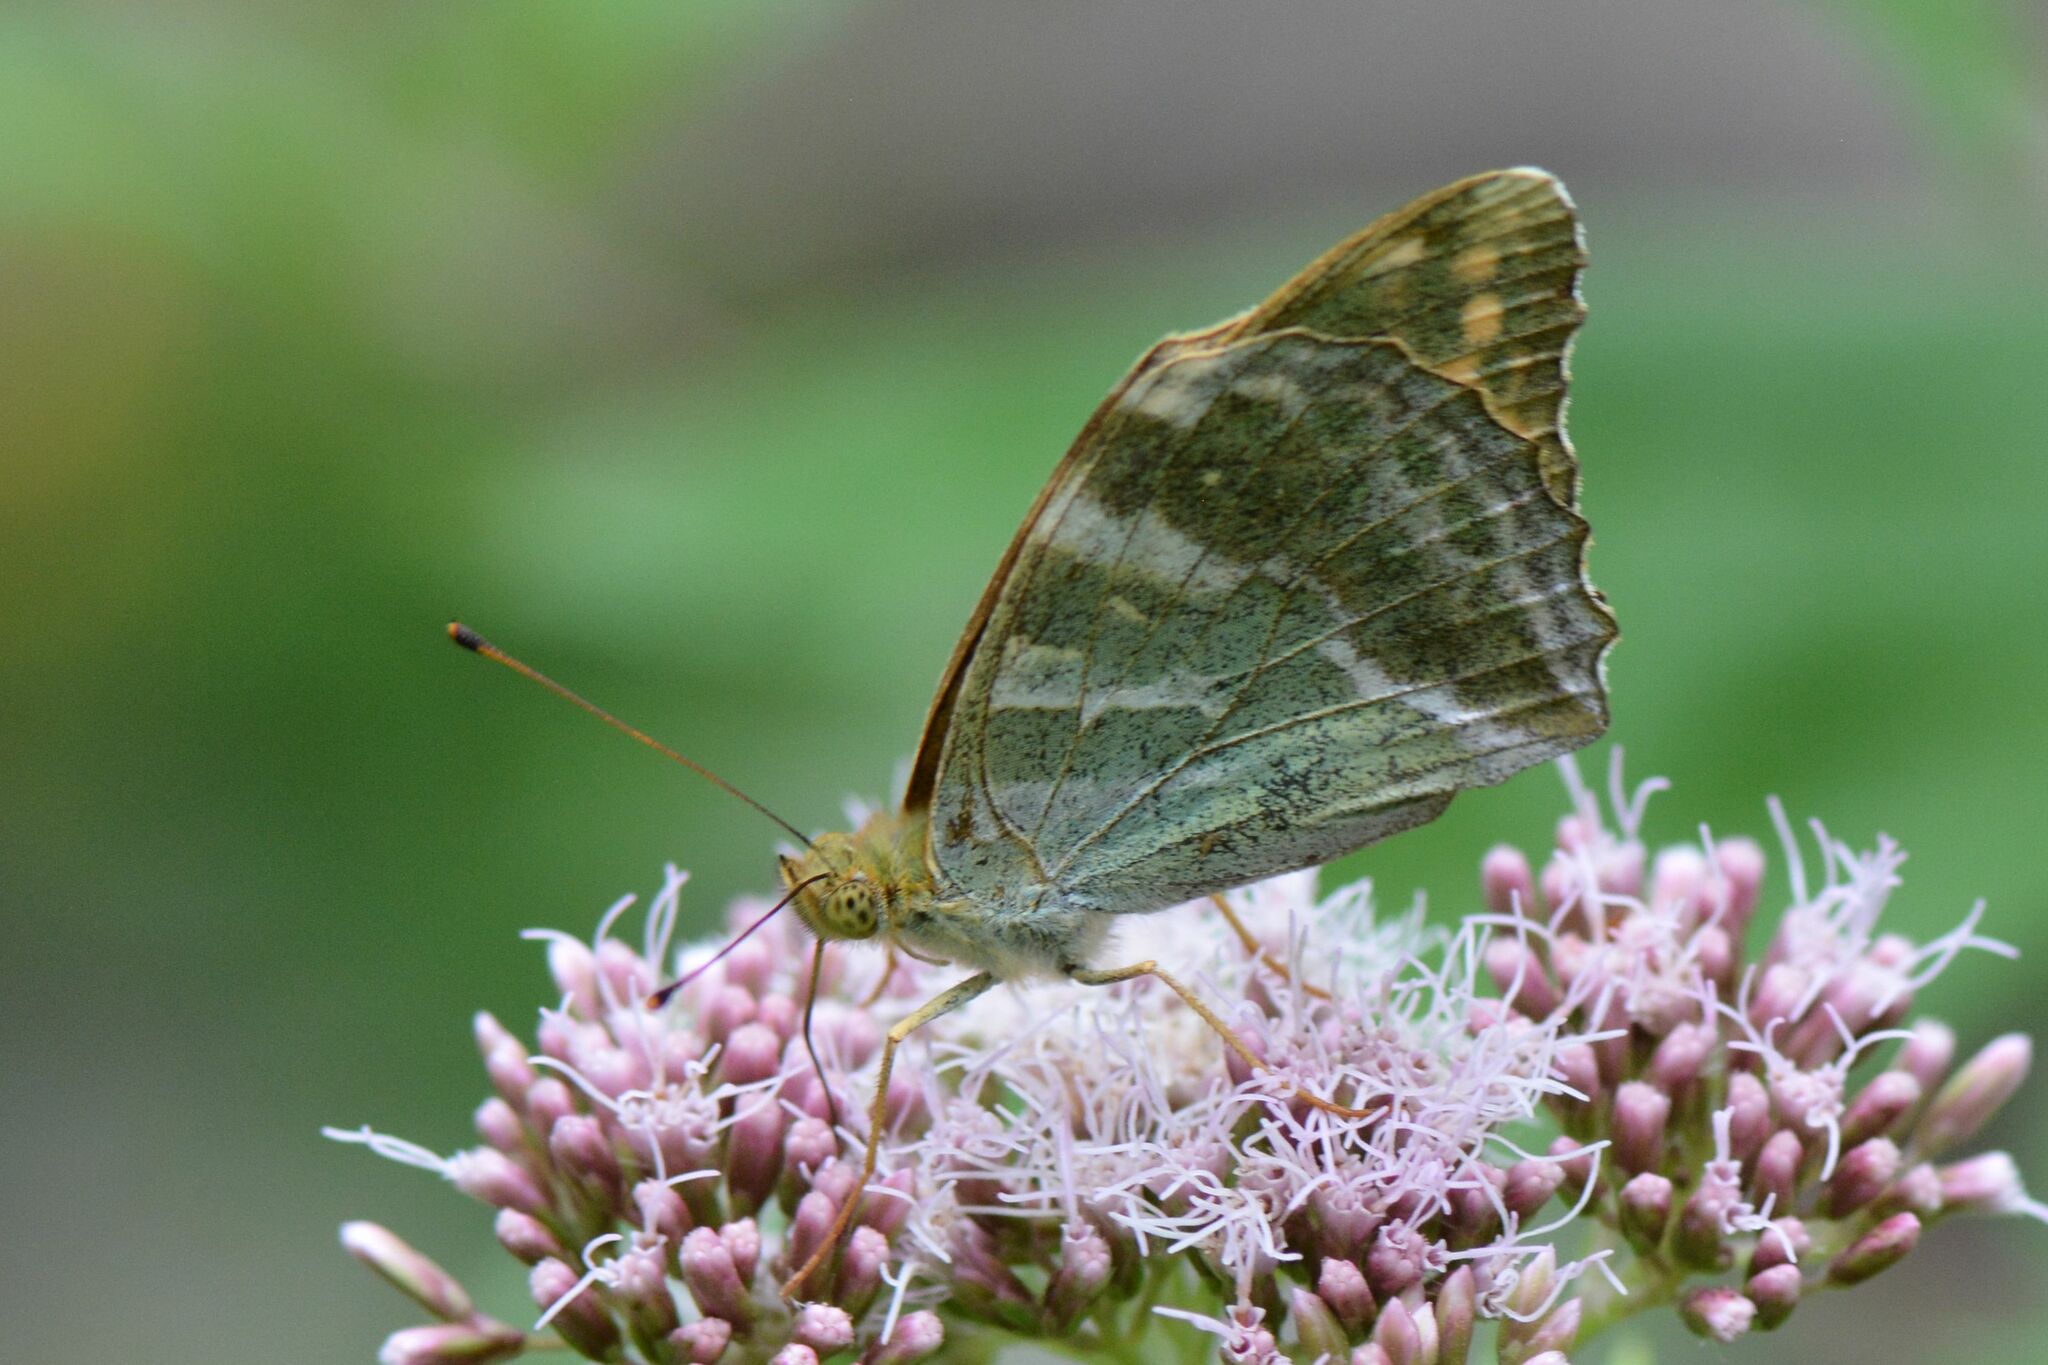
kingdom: Animalia
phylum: Arthropoda
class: Insecta
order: Lepidoptera
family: Nymphalidae
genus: Argynnis
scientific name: Argynnis paphia
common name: Silver-washed fritillary
